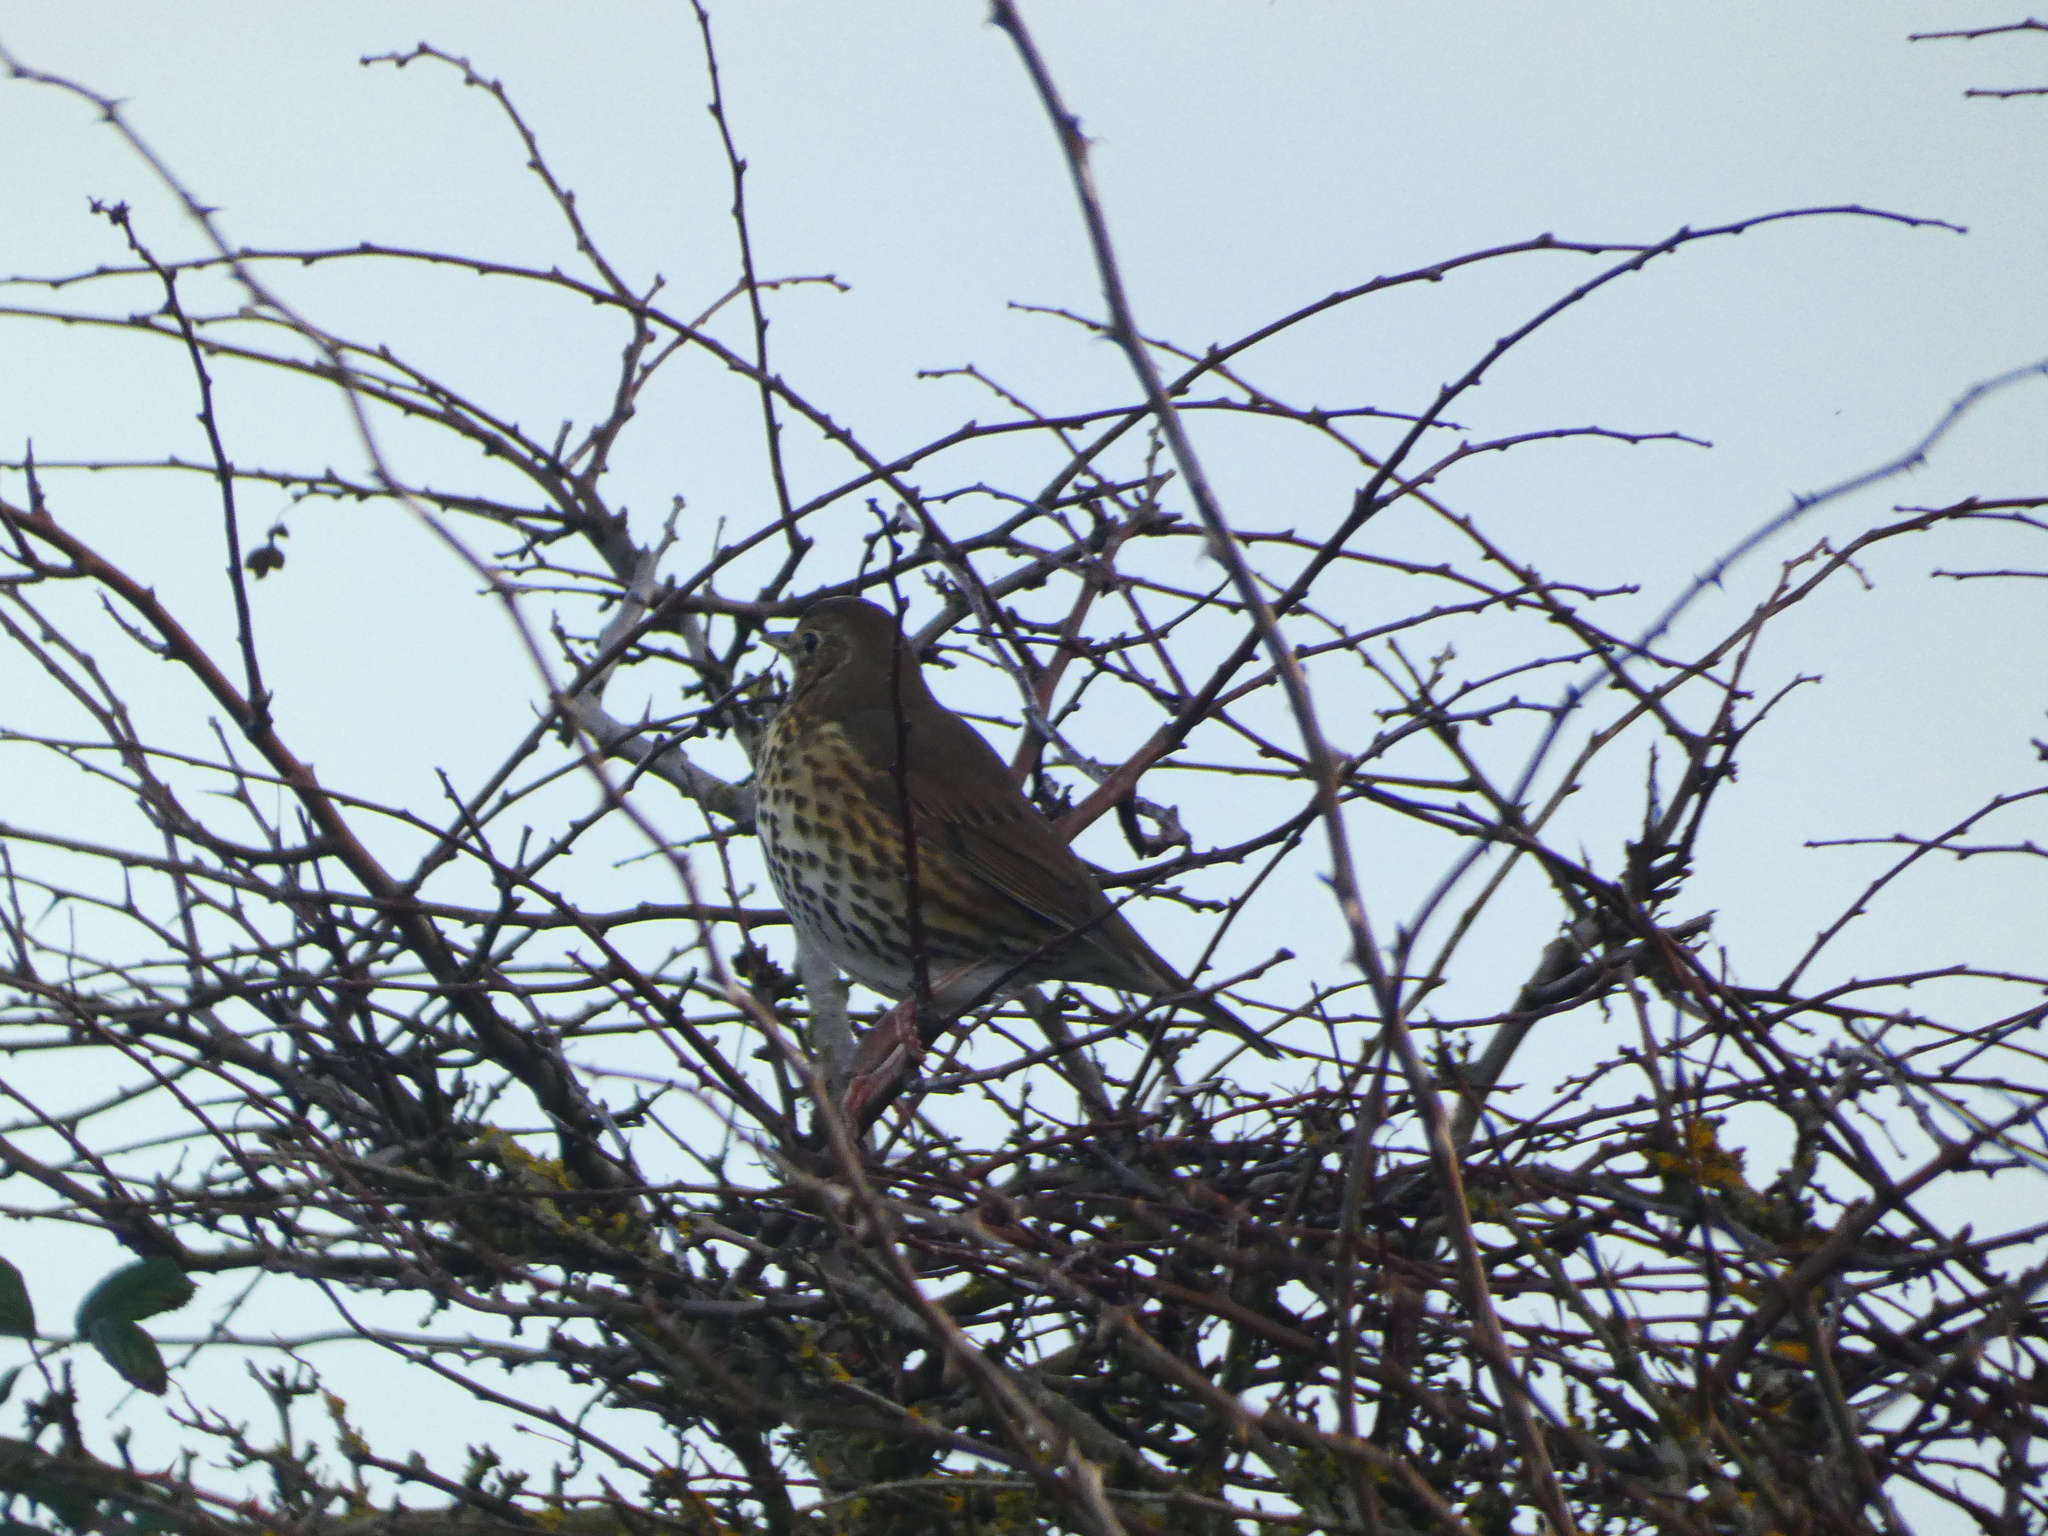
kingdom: Animalia
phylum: Chordata
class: Aves
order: Passeriformes
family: Turdidae
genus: Turdus
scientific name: Turdus philomelos
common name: Song thrush
